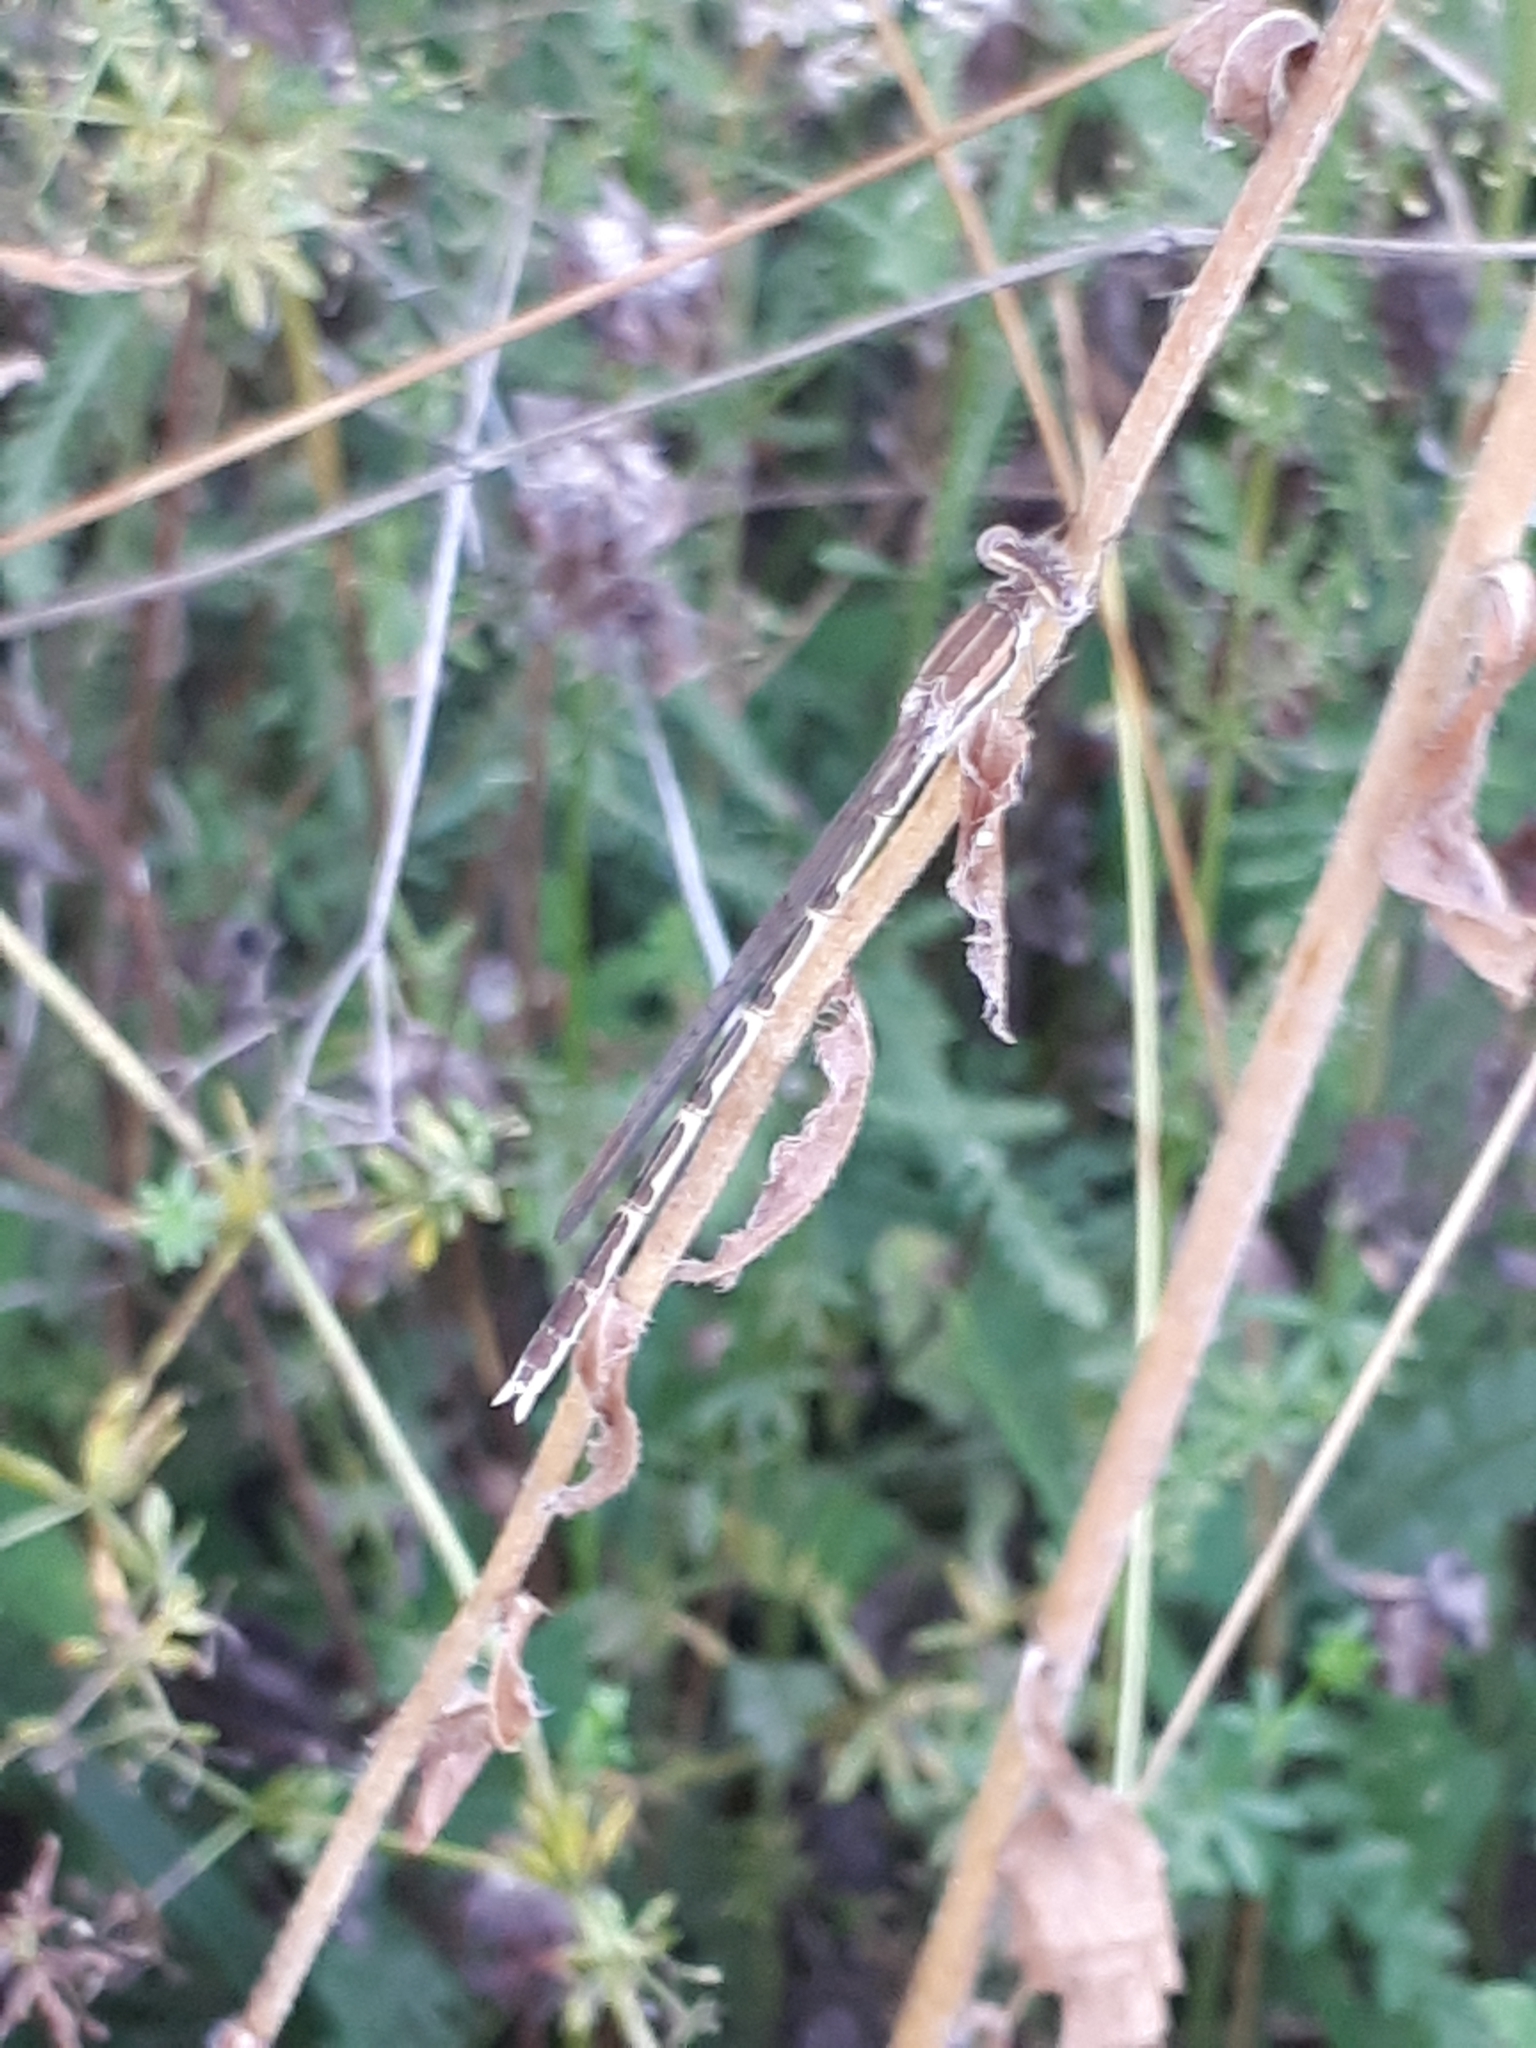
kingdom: Animalia
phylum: Arthropoda
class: Insecta
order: Odonata
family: Lestidae
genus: Sympecma
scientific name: Sympecma fusca
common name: Common winter damsel
